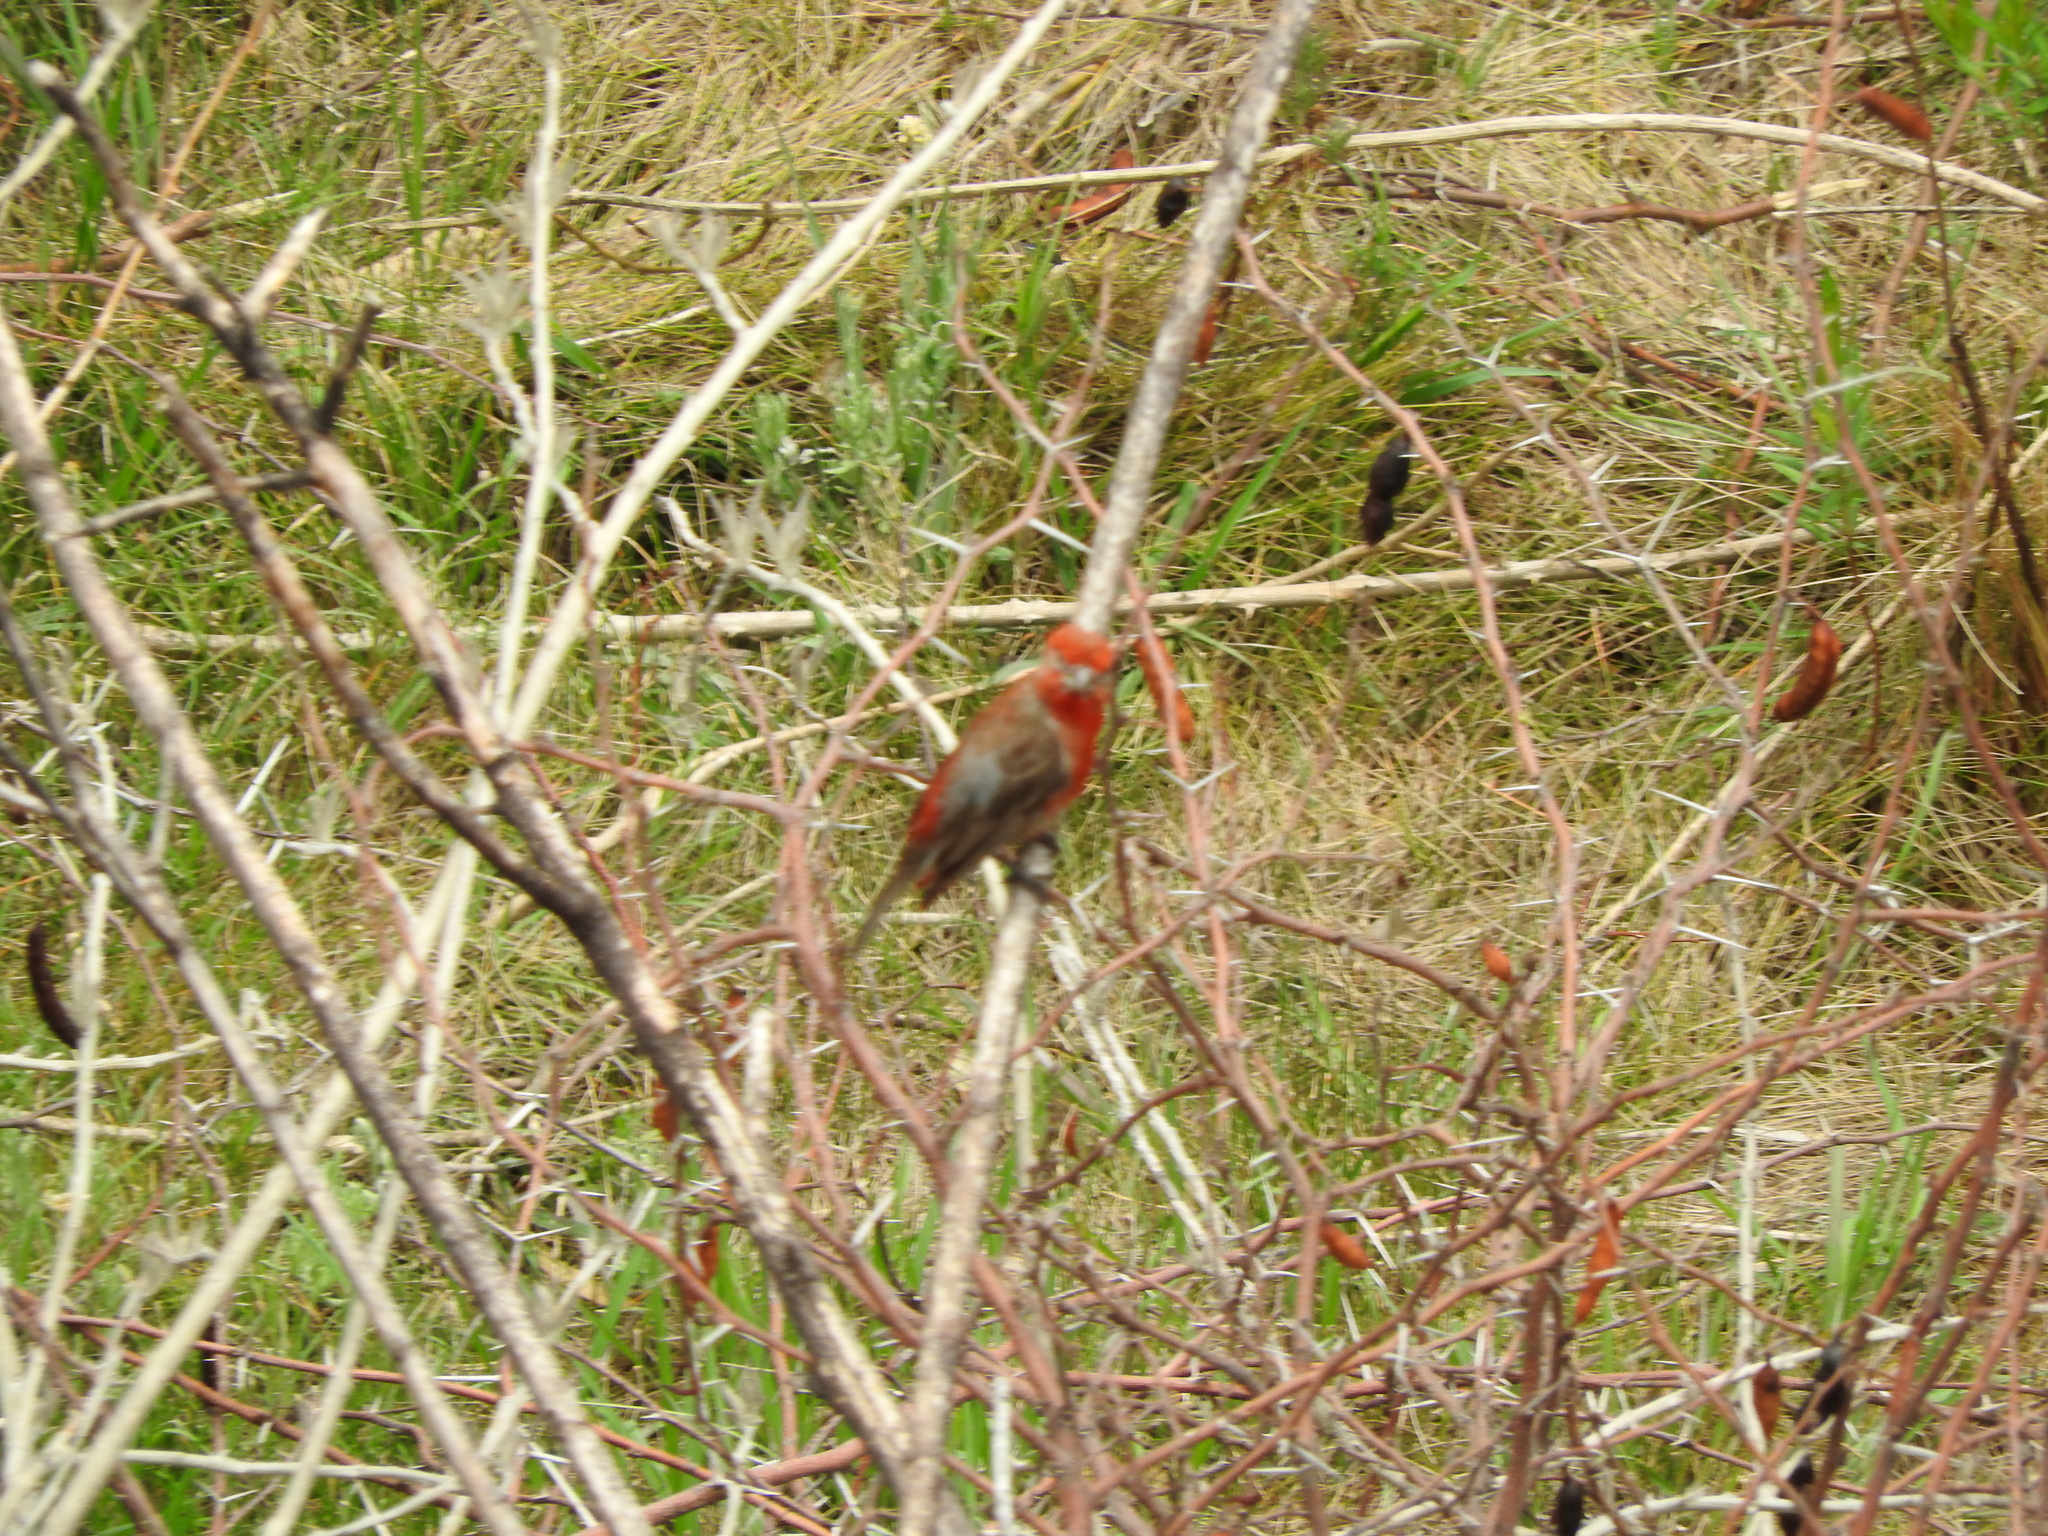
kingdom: Animalia
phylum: Chordata
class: Aves
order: Passeriformes
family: Fringillidae
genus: Haemorhous
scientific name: Haemorhous mexicanus
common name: House finch
